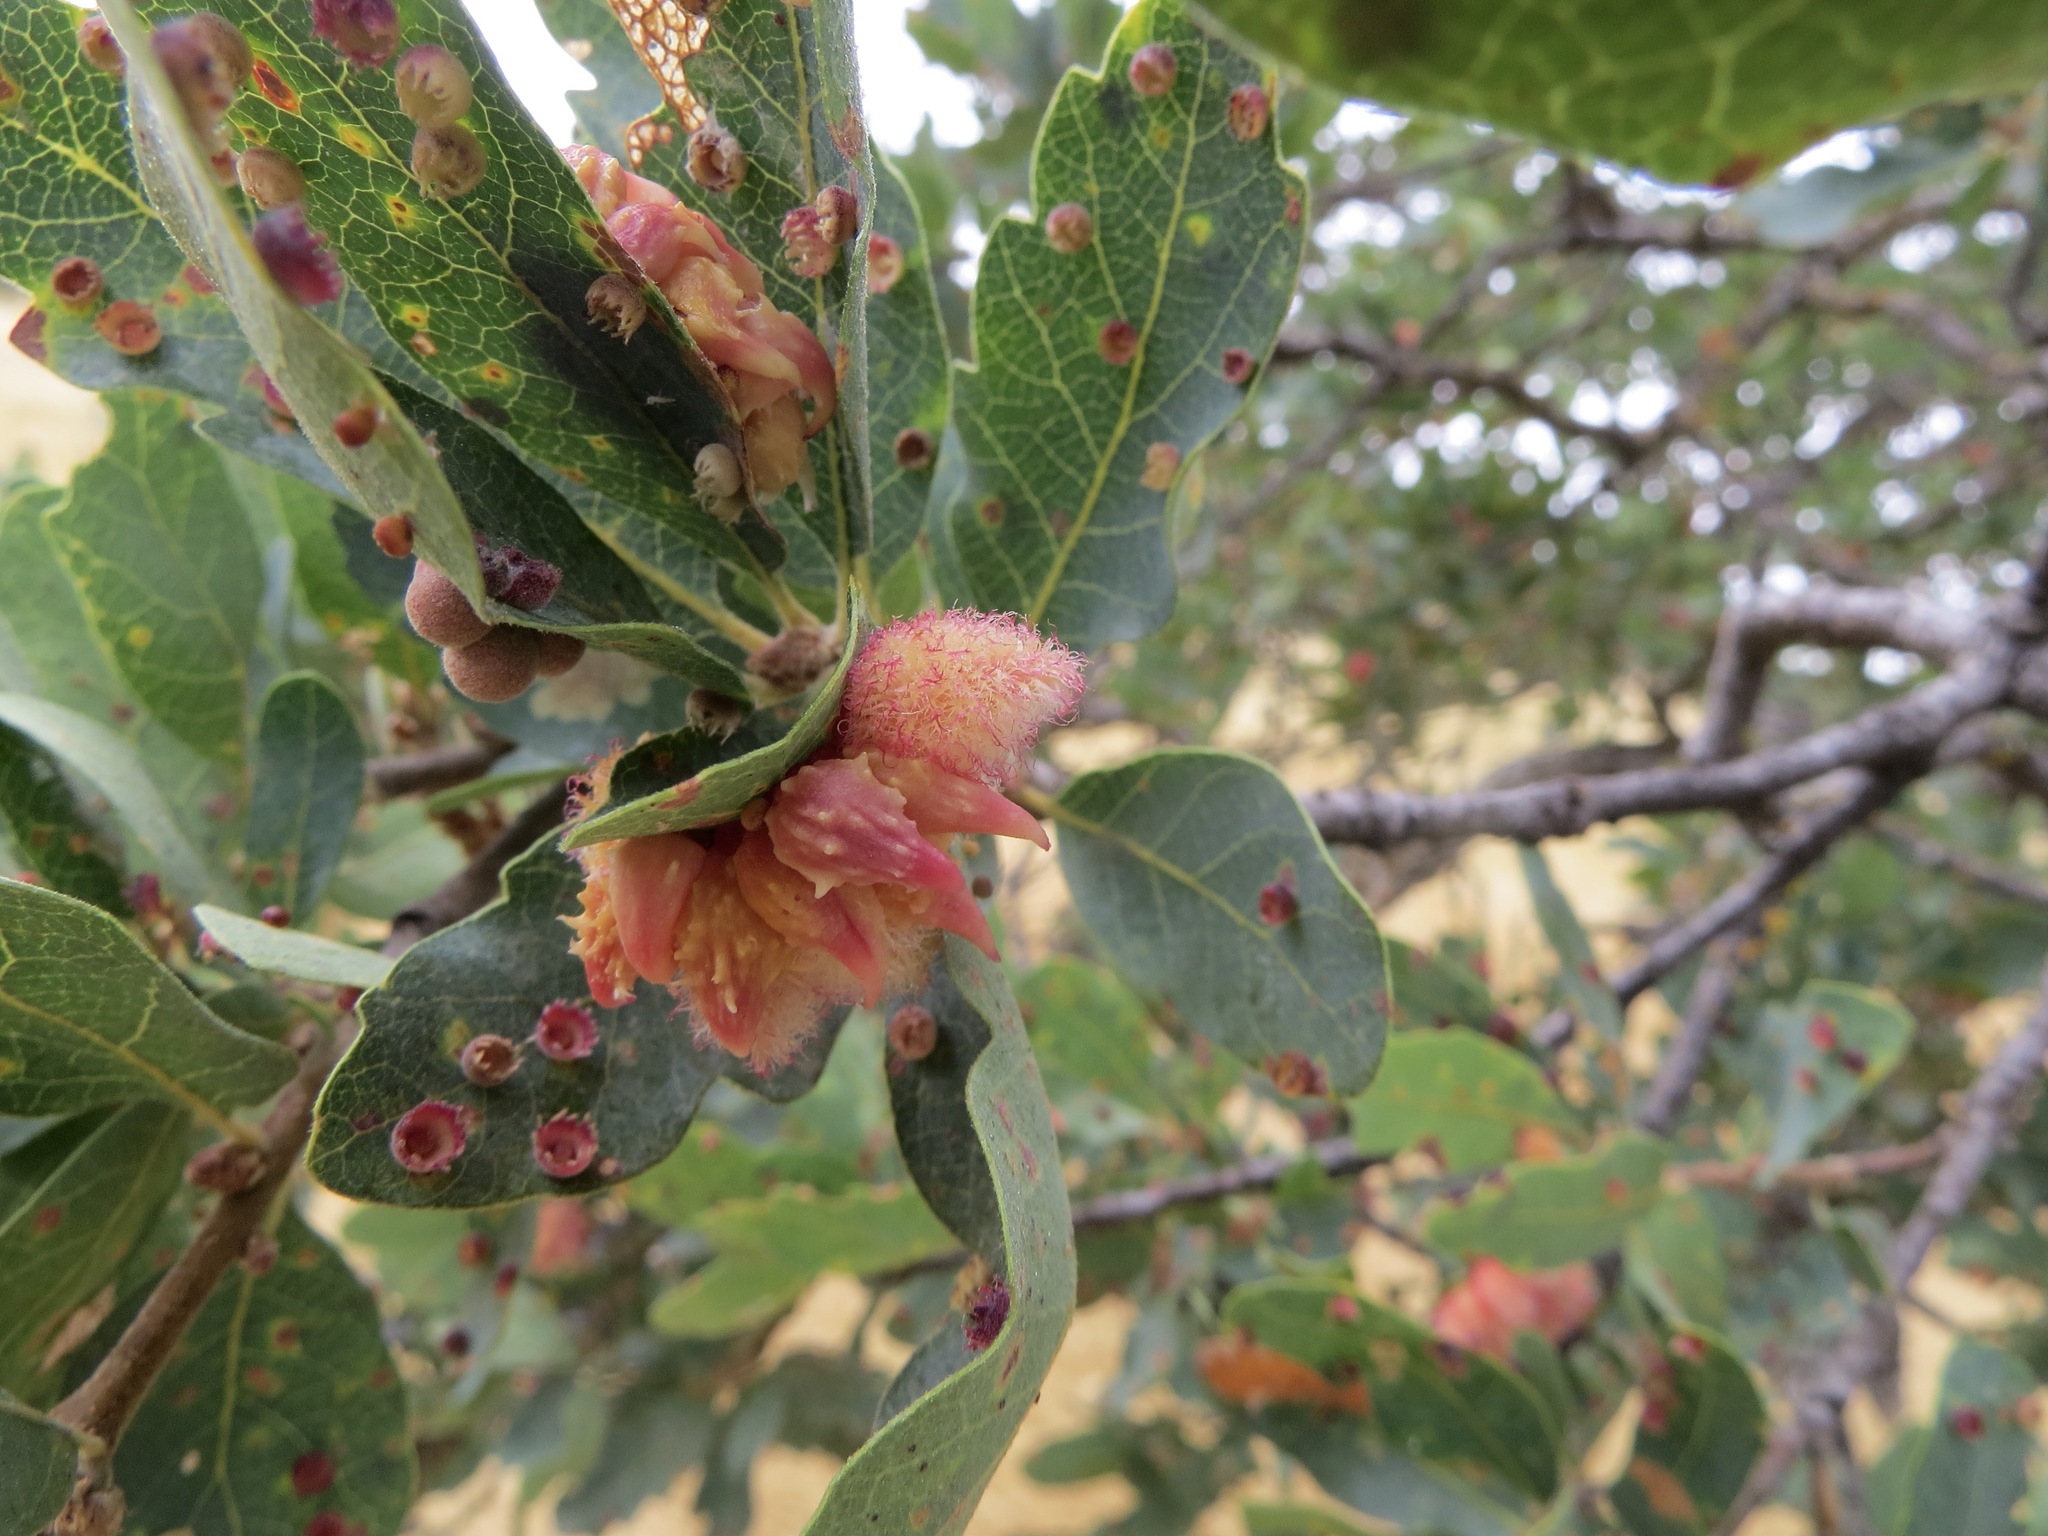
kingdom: Animalia
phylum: Arthropoda
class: Insecta
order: Hymenoptera
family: Cynipidae
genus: Andricus
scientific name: Andricus
